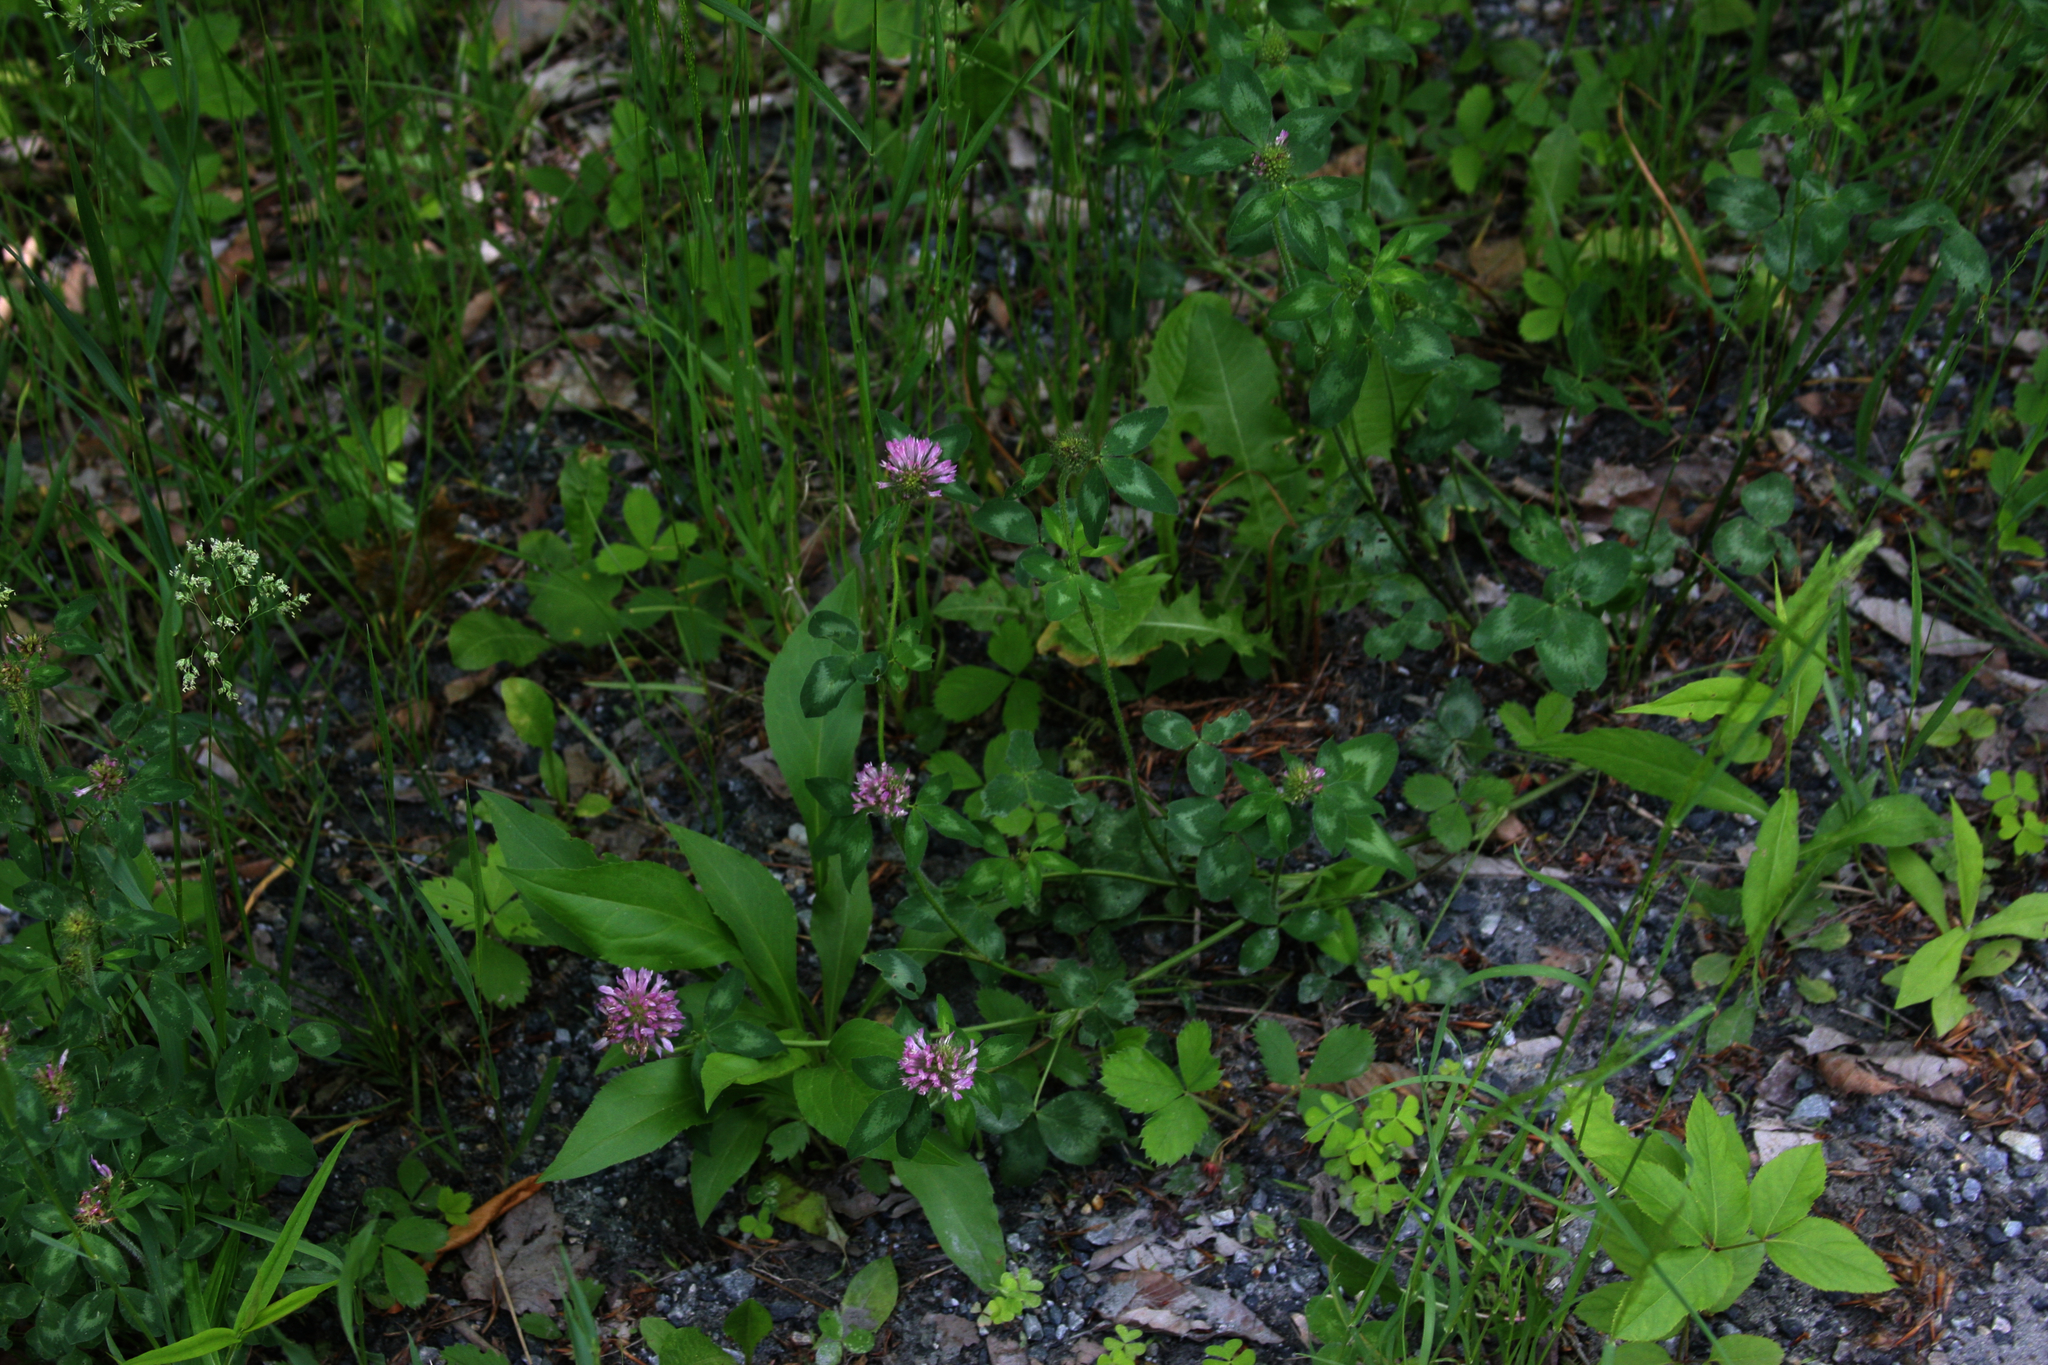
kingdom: Plantae
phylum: Tracheophyta
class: Magnoliopsida
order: Fabales
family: Fabaceae
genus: Trifolium
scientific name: Trifolium pratense
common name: Red clover
